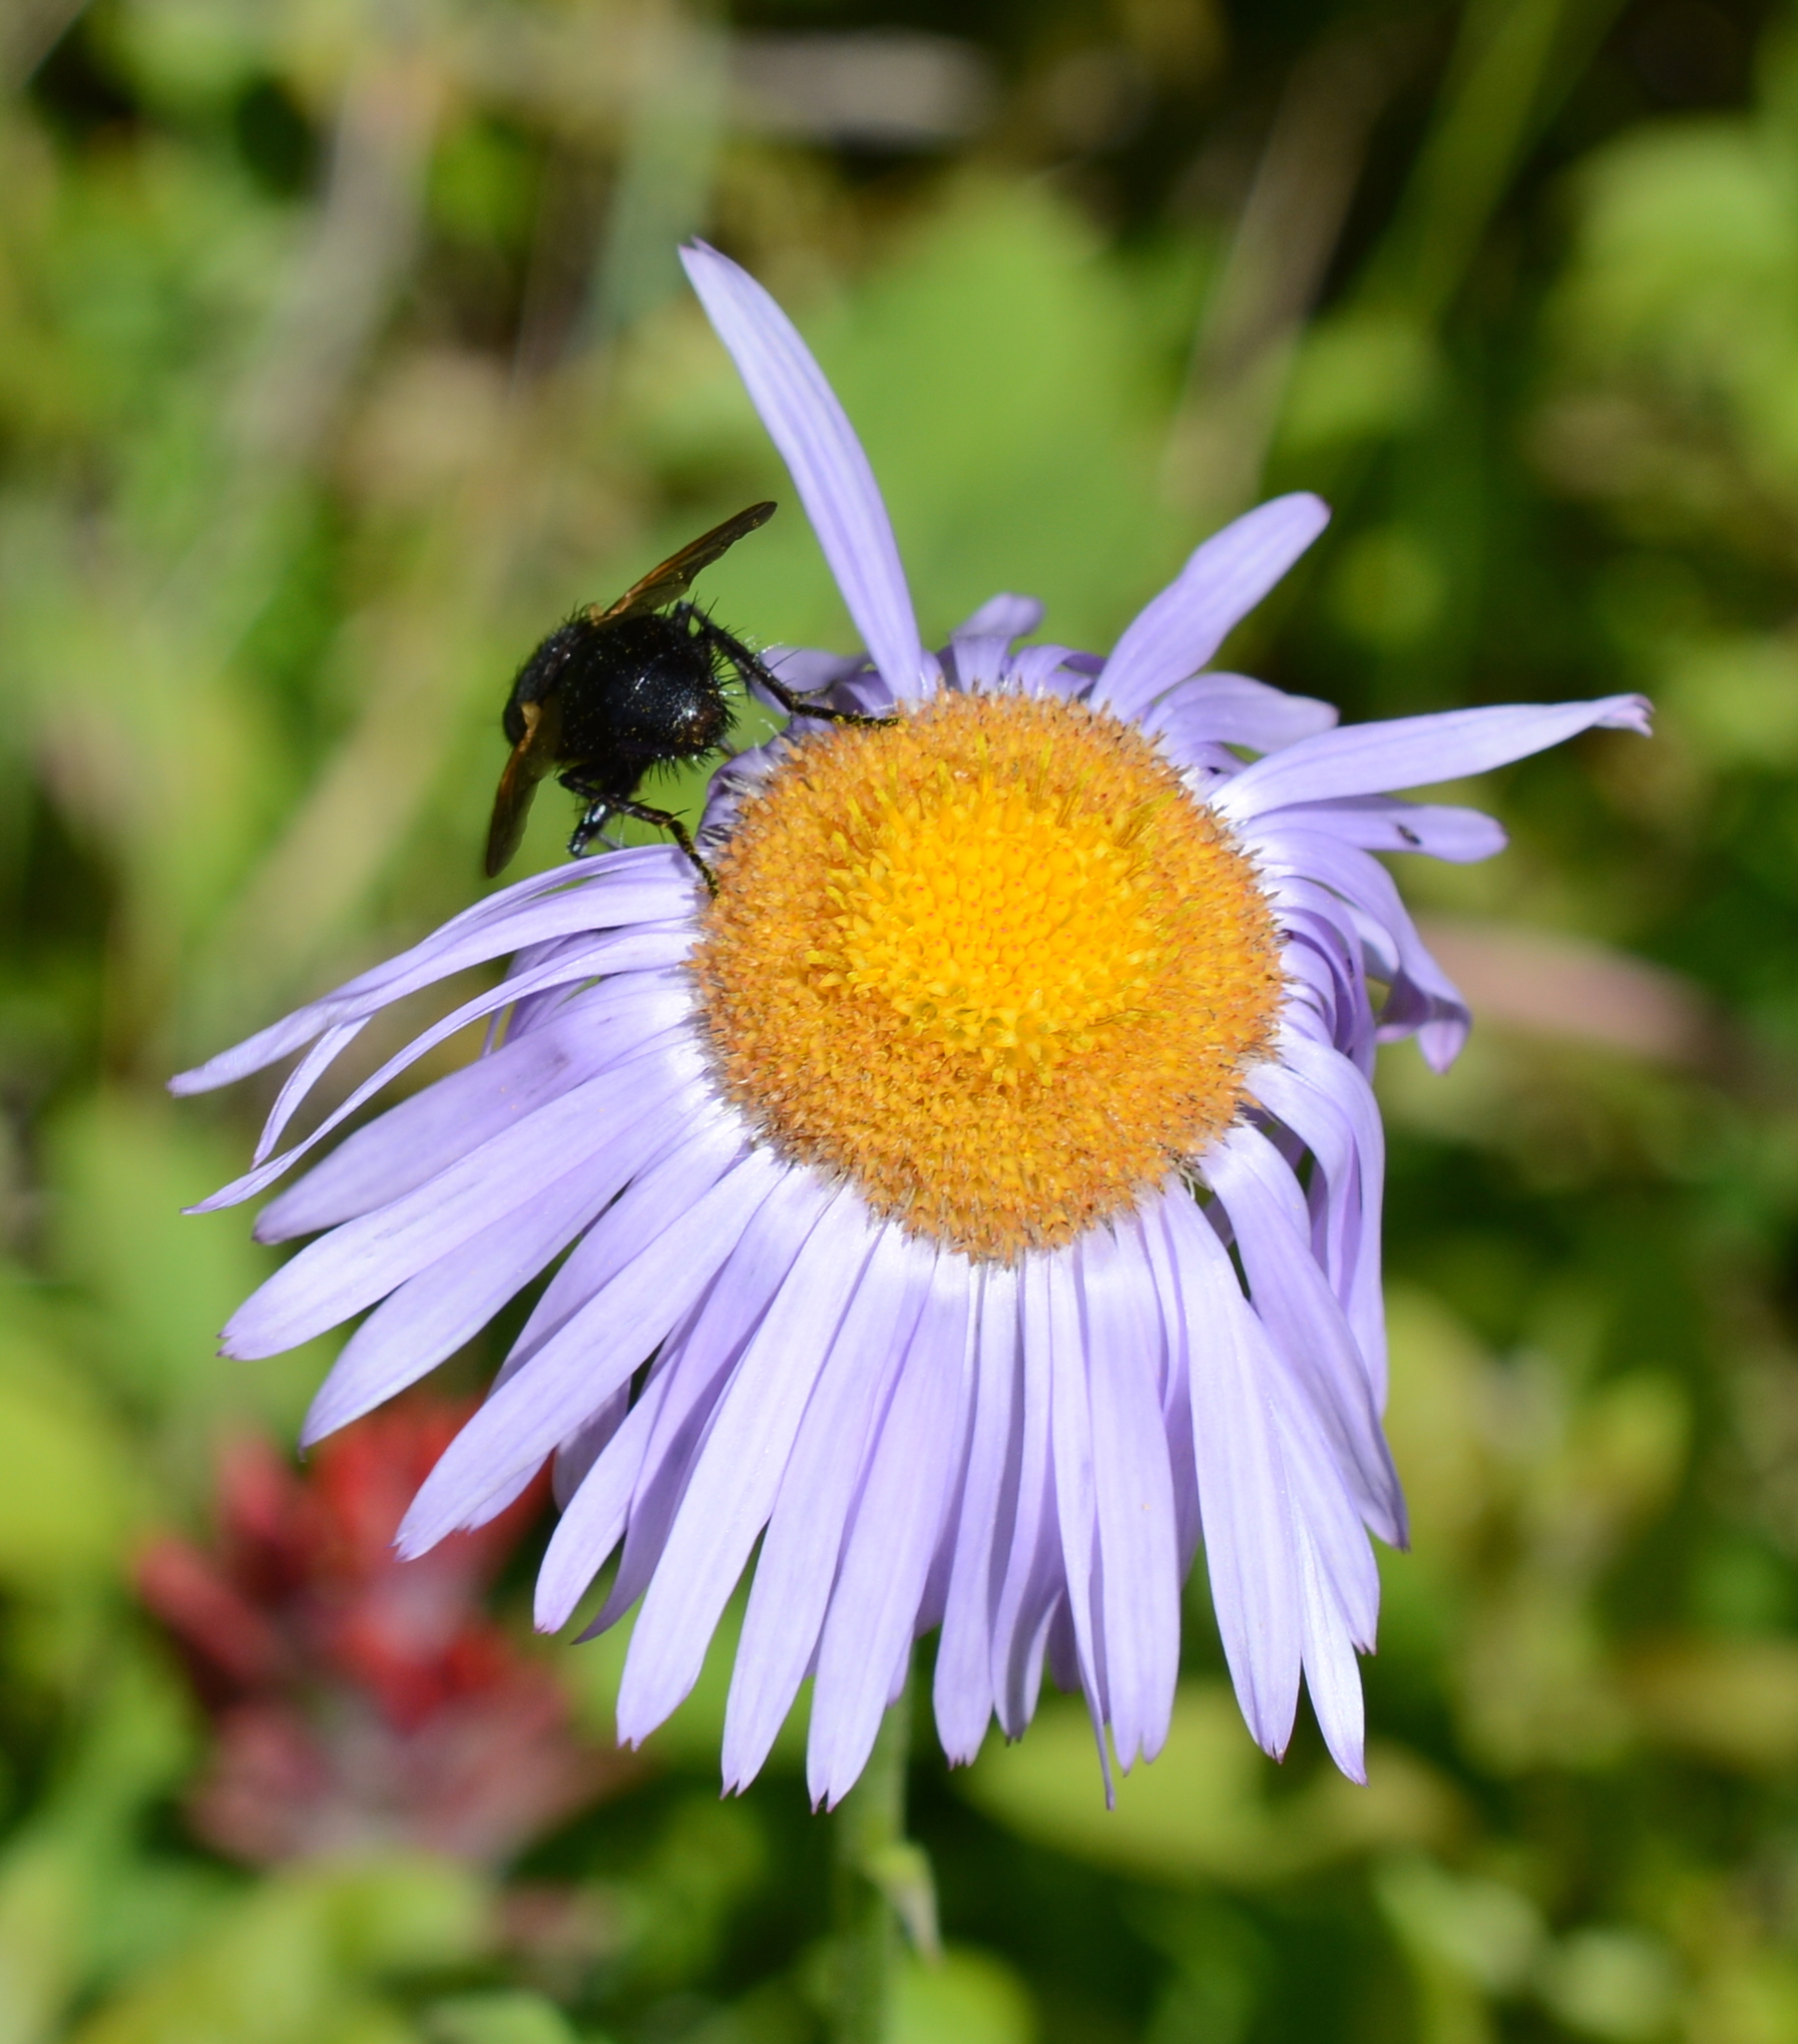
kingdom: Animalia
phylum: Arthropoda
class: Insecta
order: Diptera
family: Tachinidae
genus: Tachina
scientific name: Tachina latianulum
